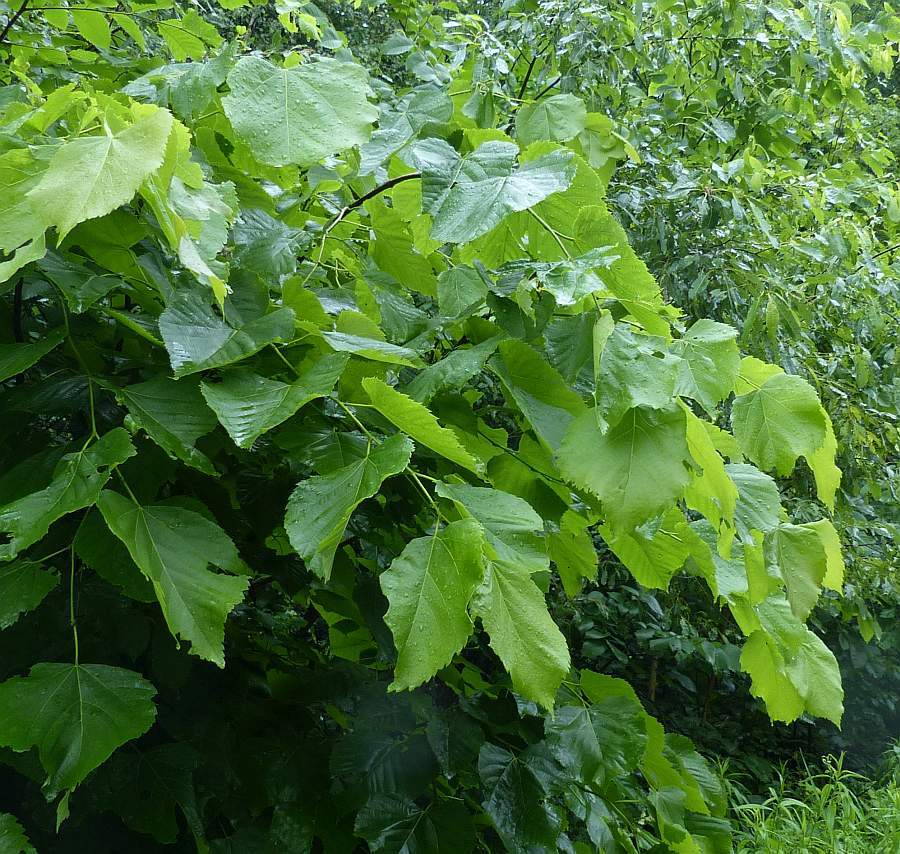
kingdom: Plantae
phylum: Tracheophyta
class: Magnoliopsida
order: Malvales
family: Malvaceae
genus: Tilia
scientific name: Tilia americana
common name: Basswood
